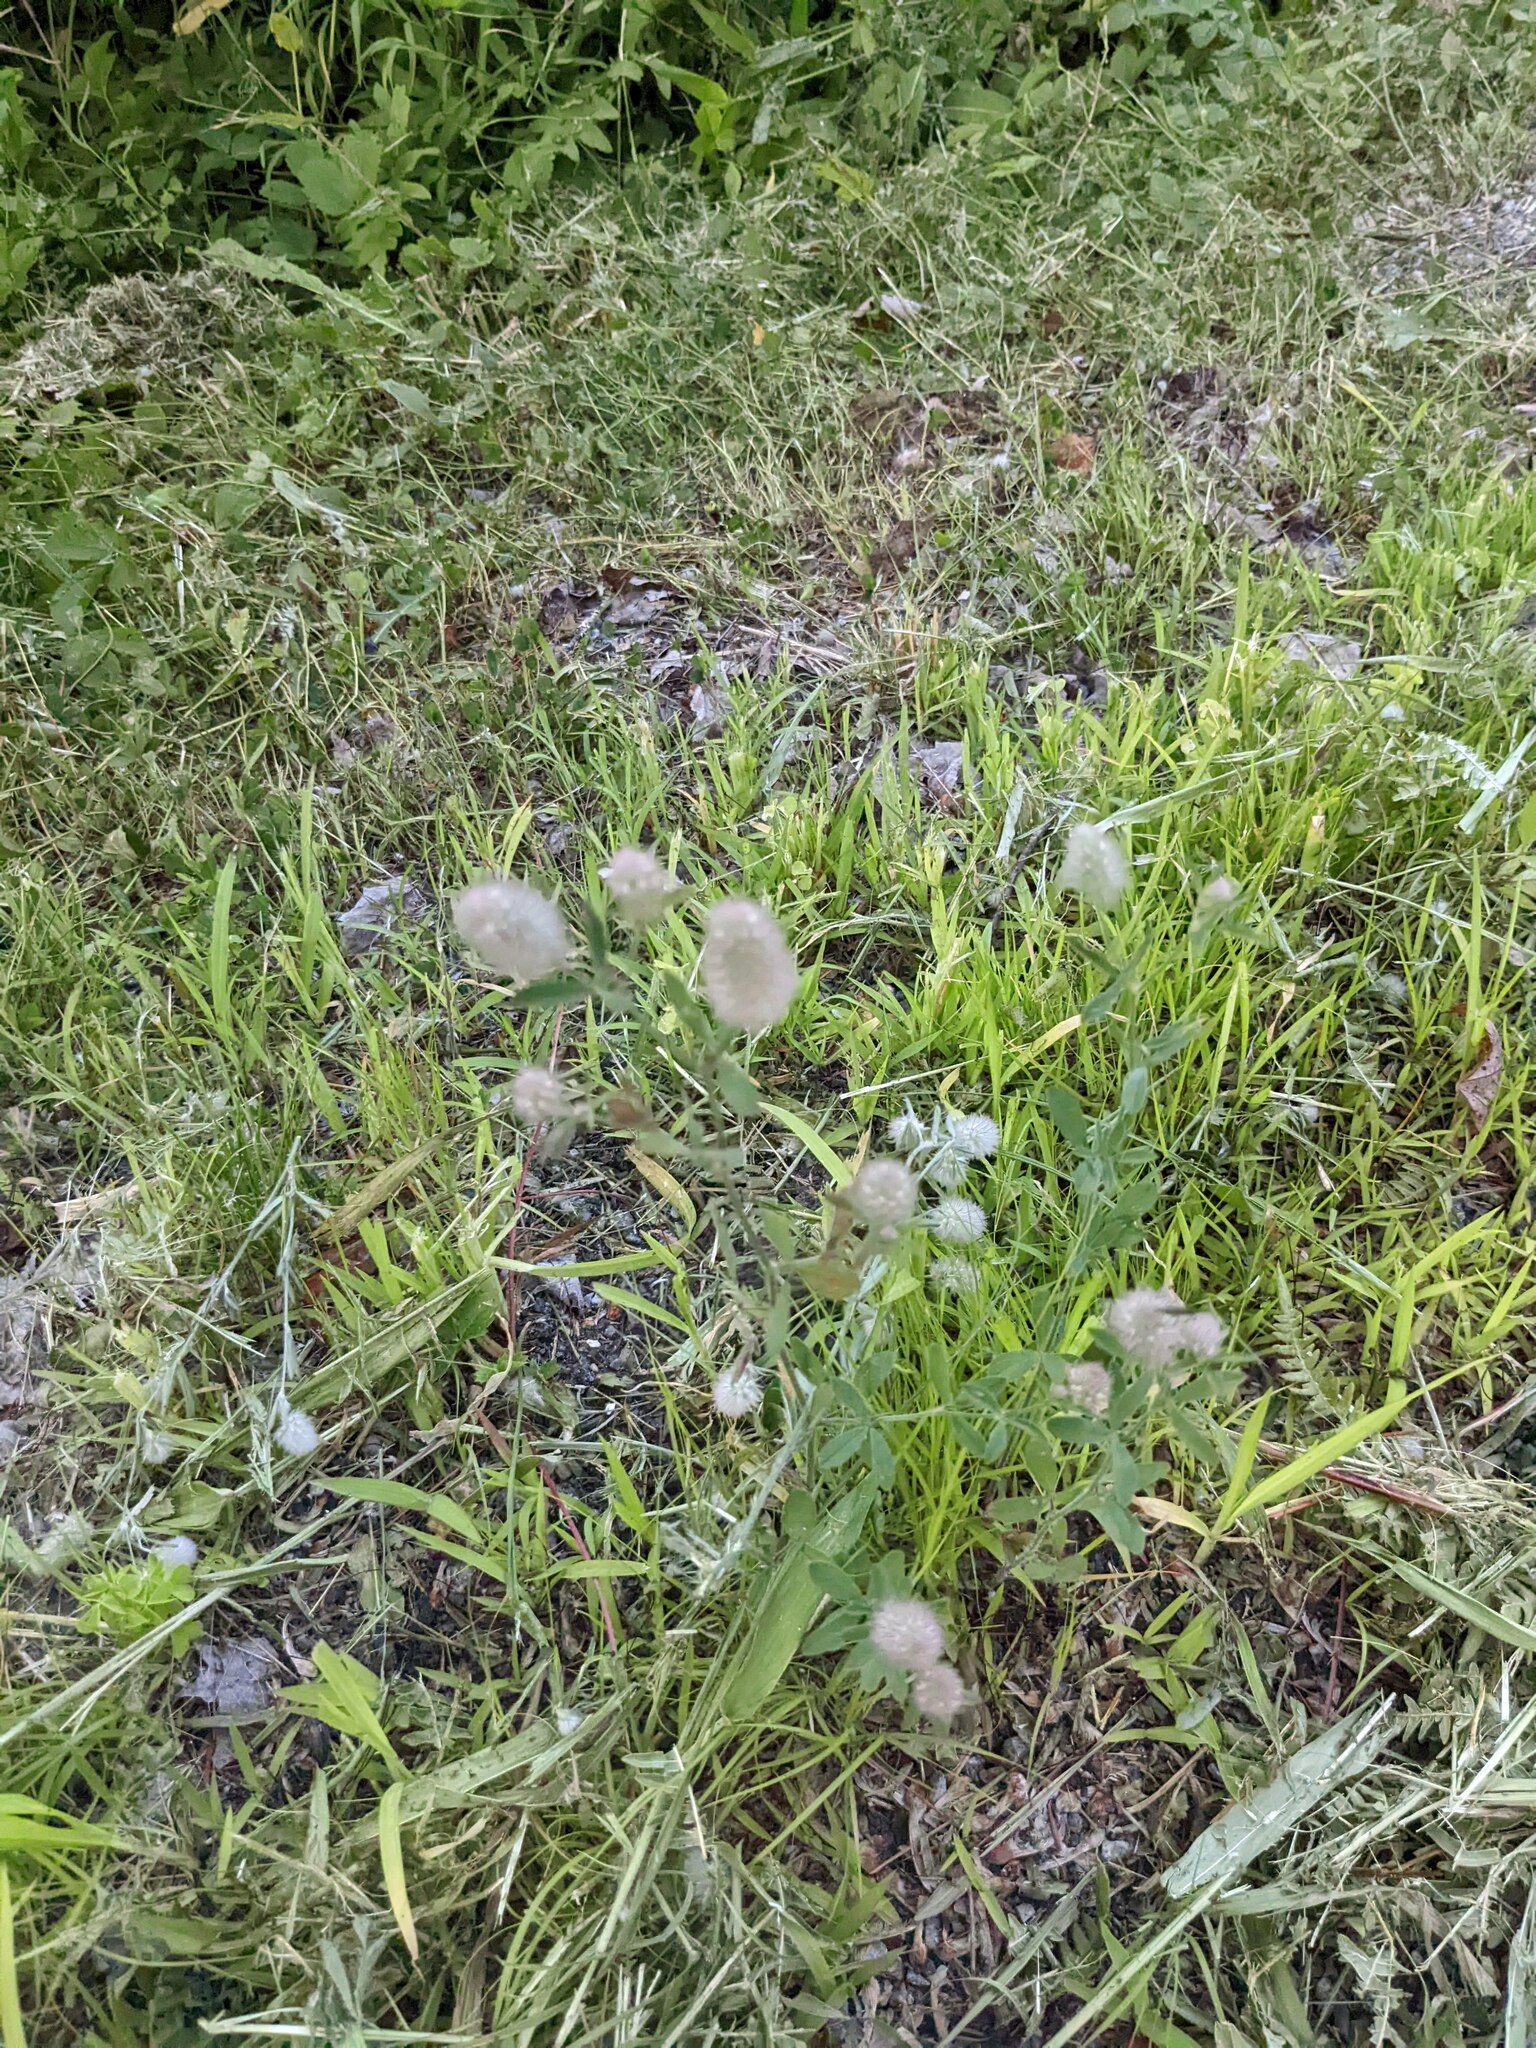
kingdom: Plantae
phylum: Tracheophyta
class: Magnoliopsida
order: Fabales
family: Fabaceae
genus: Trifolium
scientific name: Trifolium arvense
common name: Hare's-foot clover
